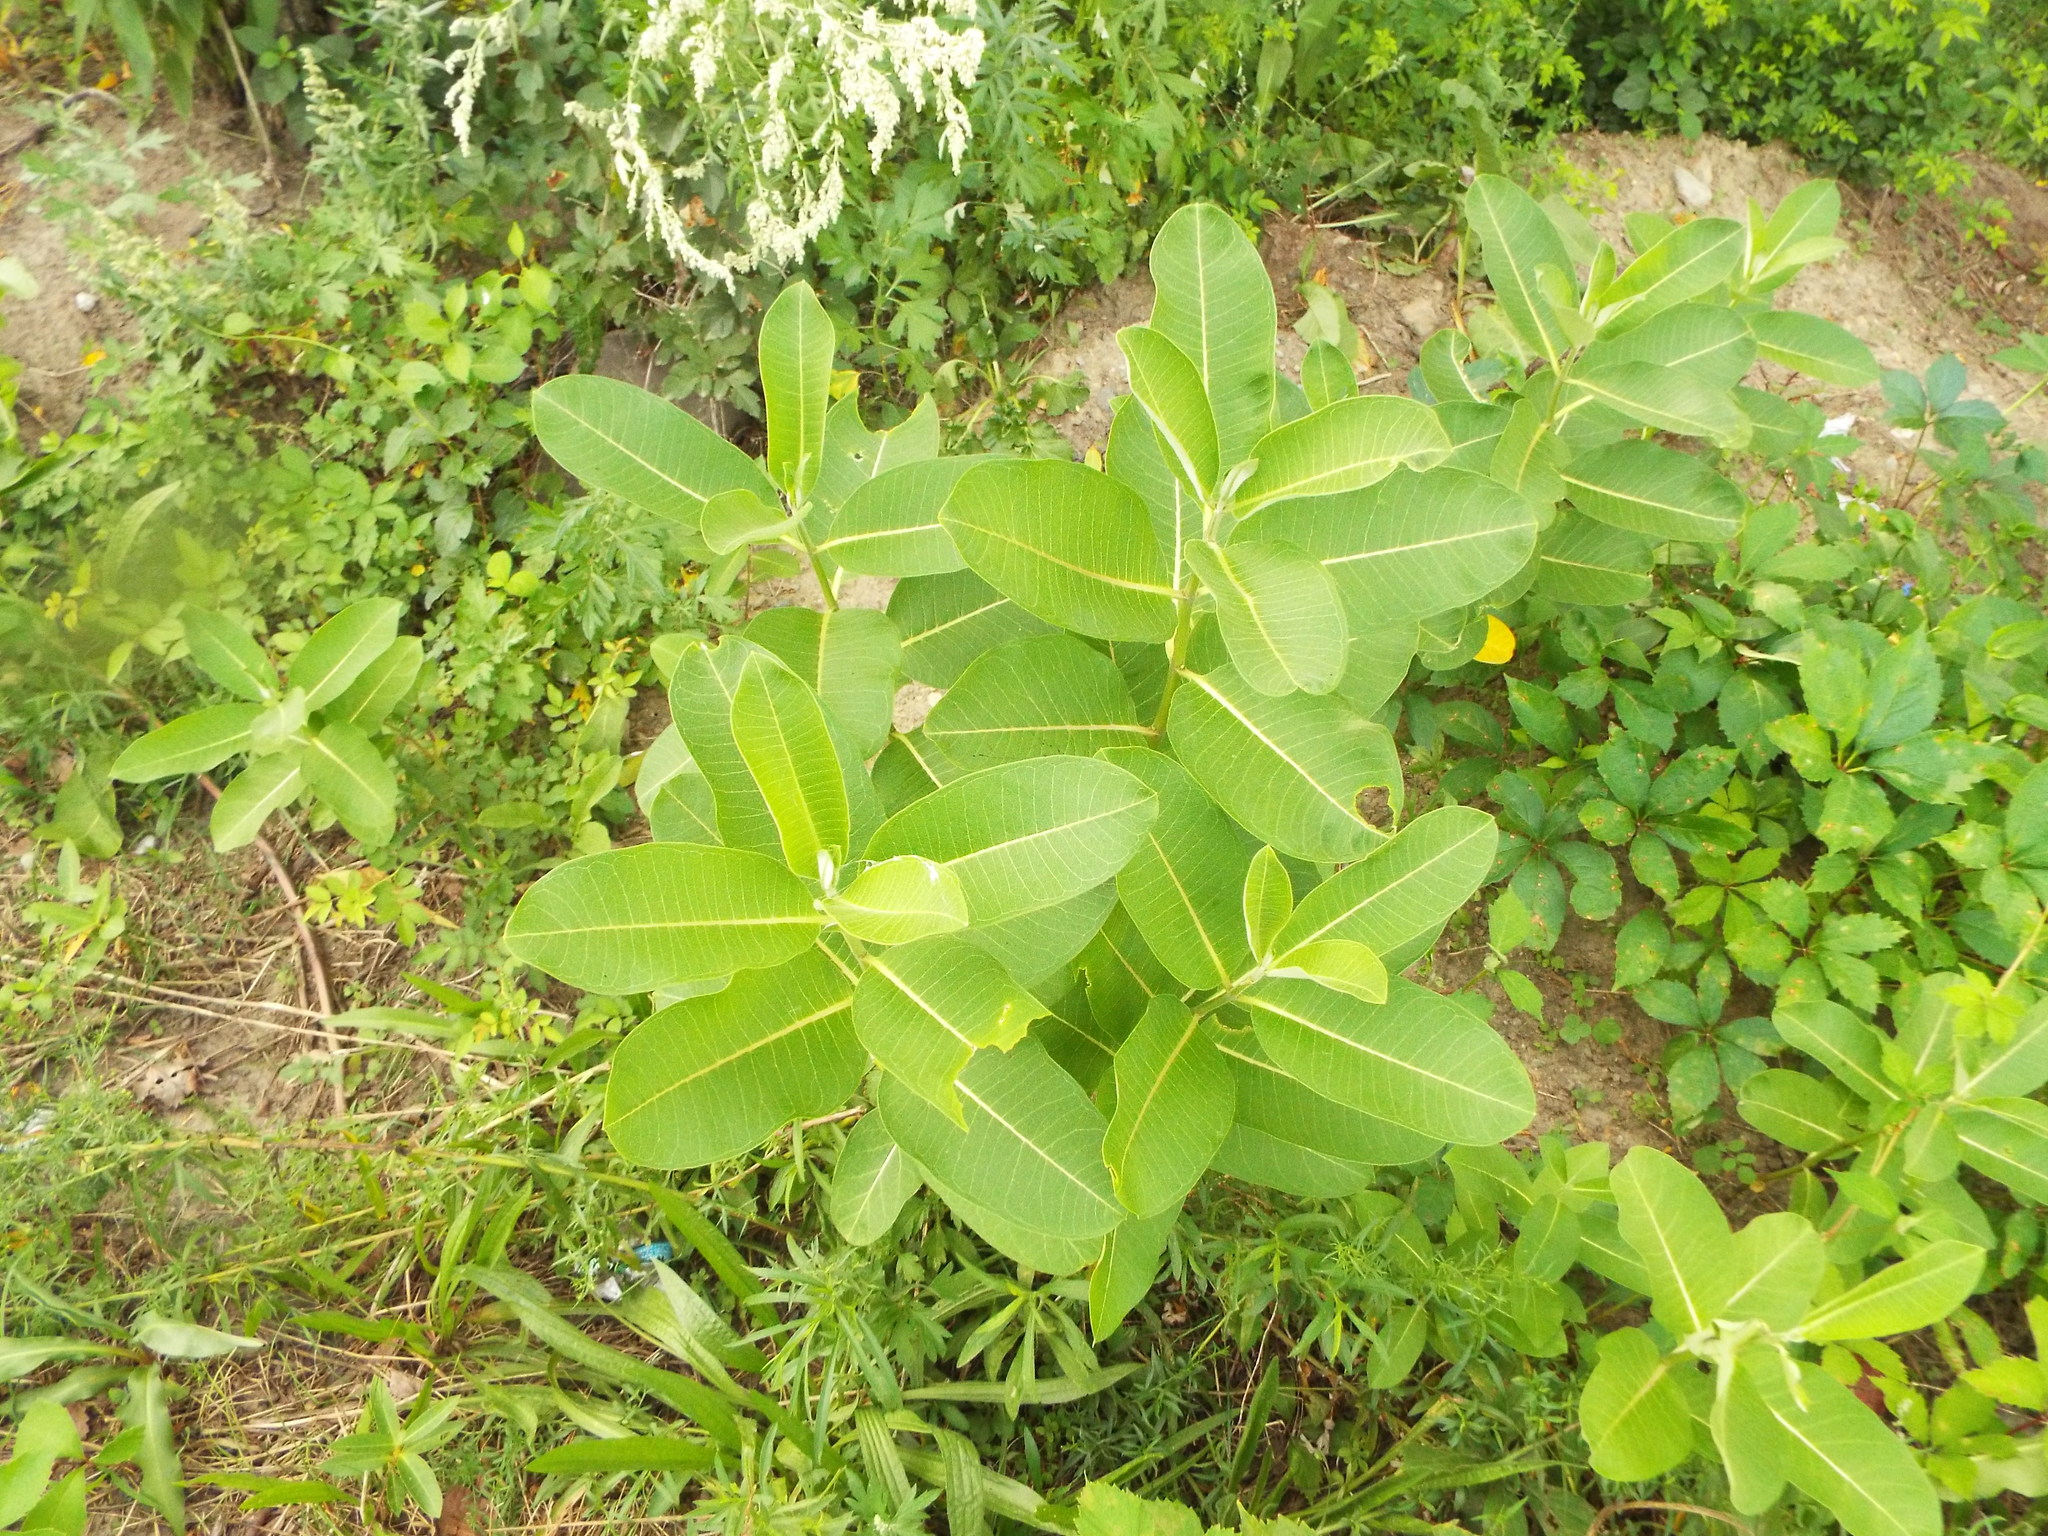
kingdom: Plantae
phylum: Tracheophyta
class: Magnoliopsida
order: Gentianales
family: Apocynaceae
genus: Asclepias
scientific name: Asclepias syriaca
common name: Common milkweed
